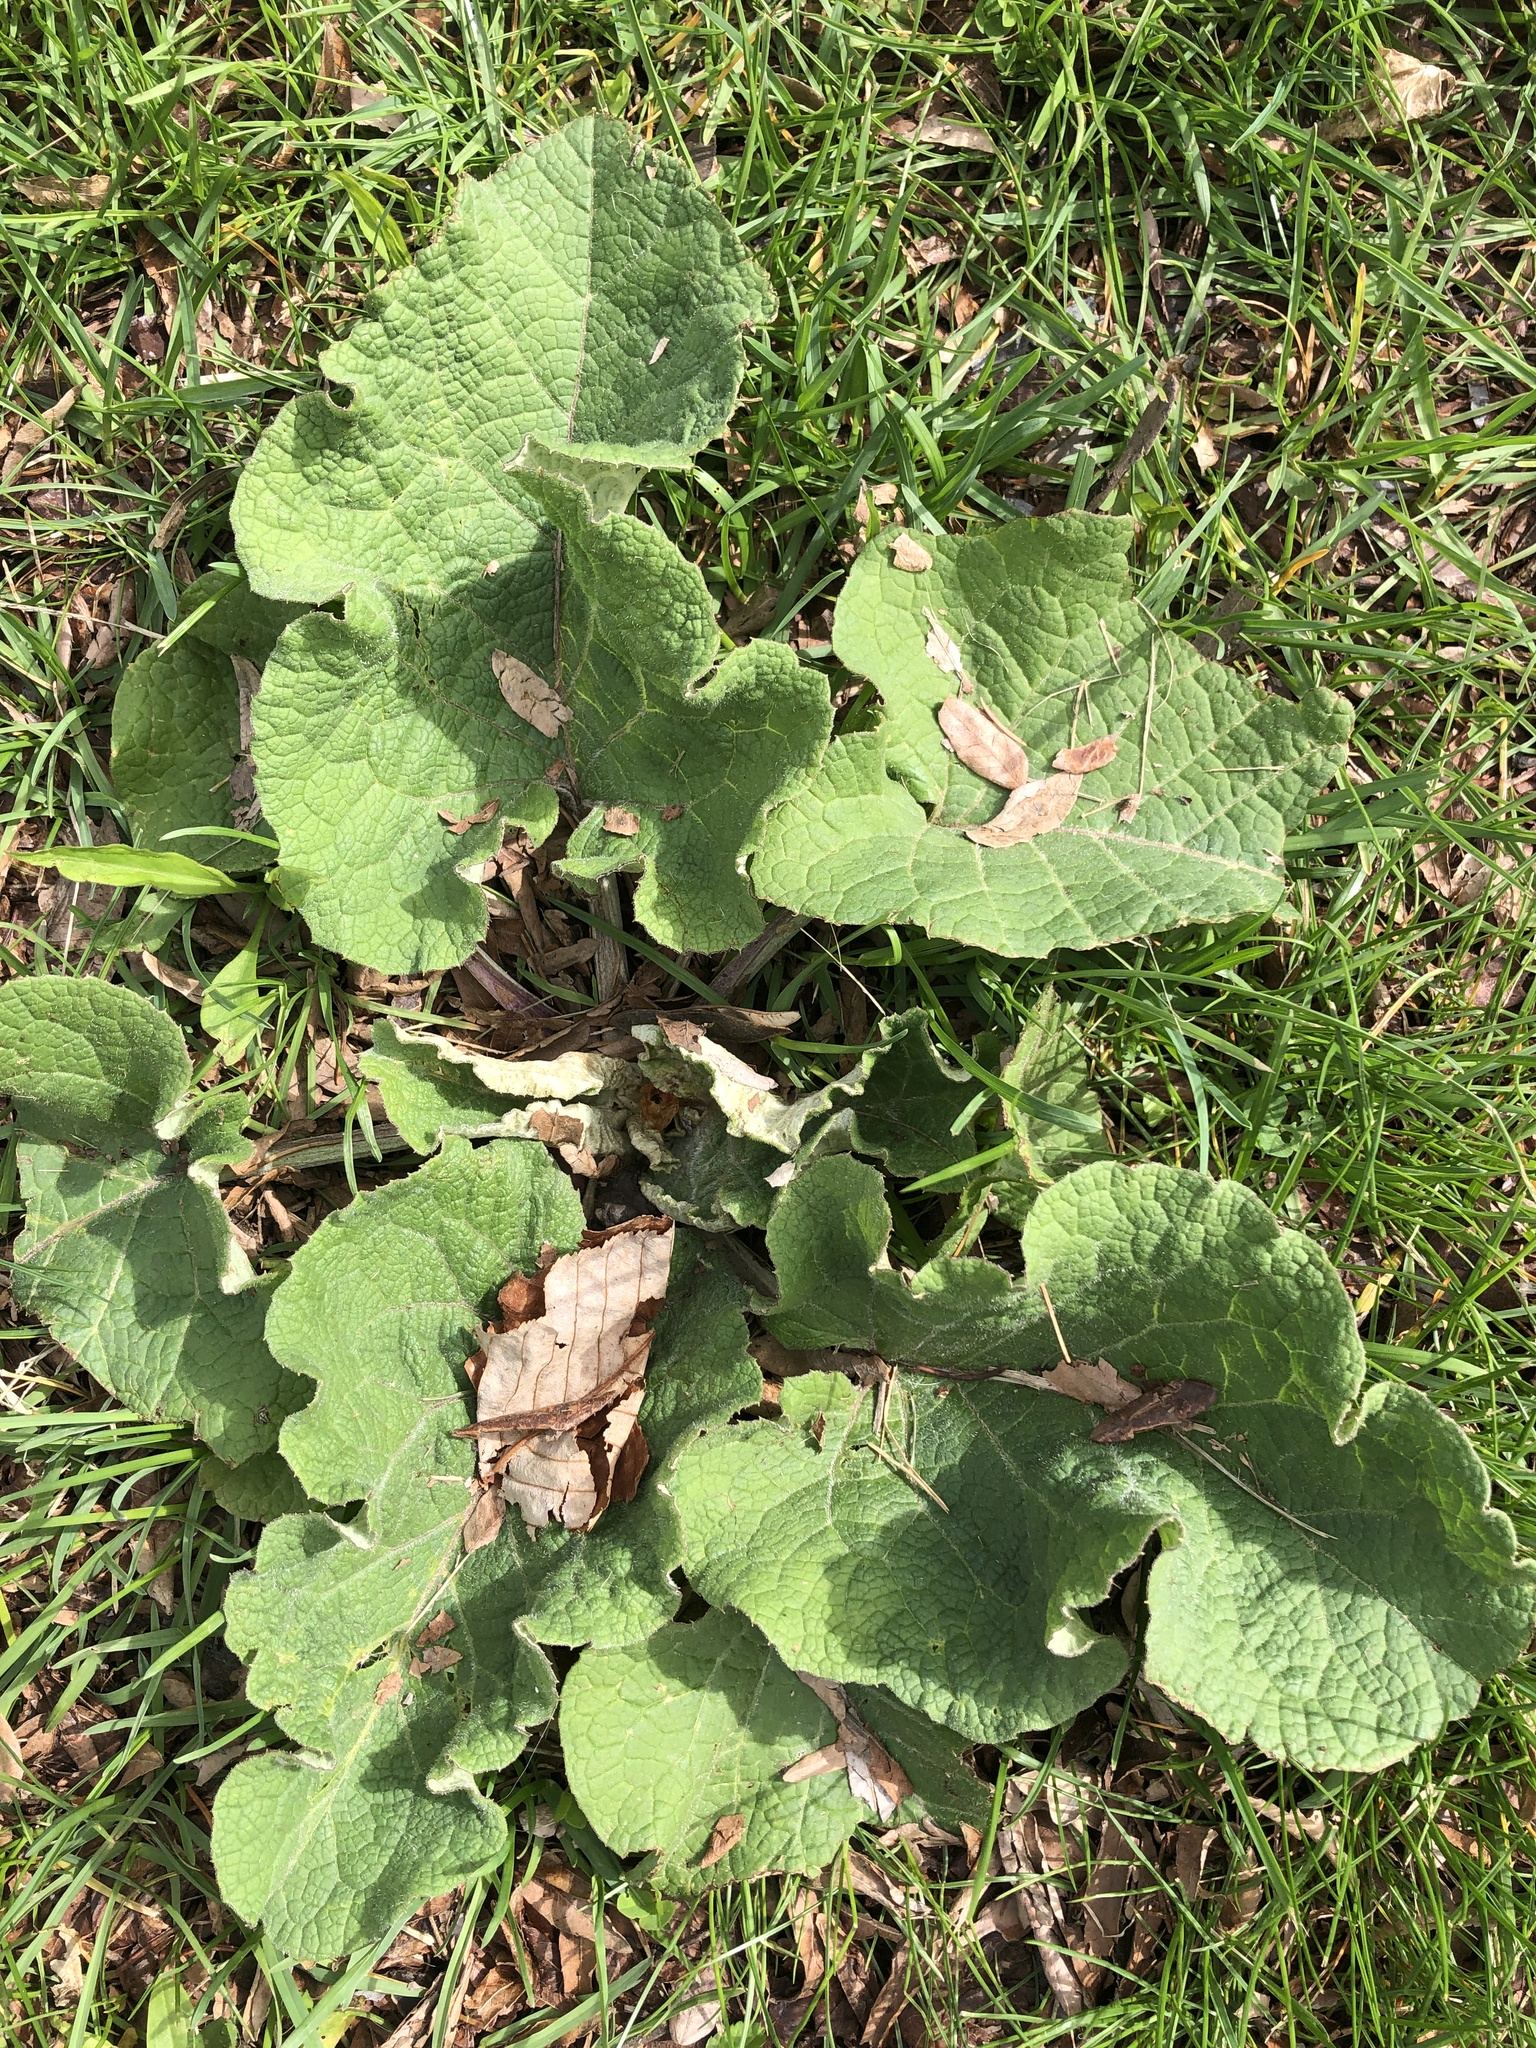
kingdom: Plantae
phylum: Tracheophyta
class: Magnoliopsida
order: Asterales
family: Asteraceae
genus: Arctium
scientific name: Arctium
